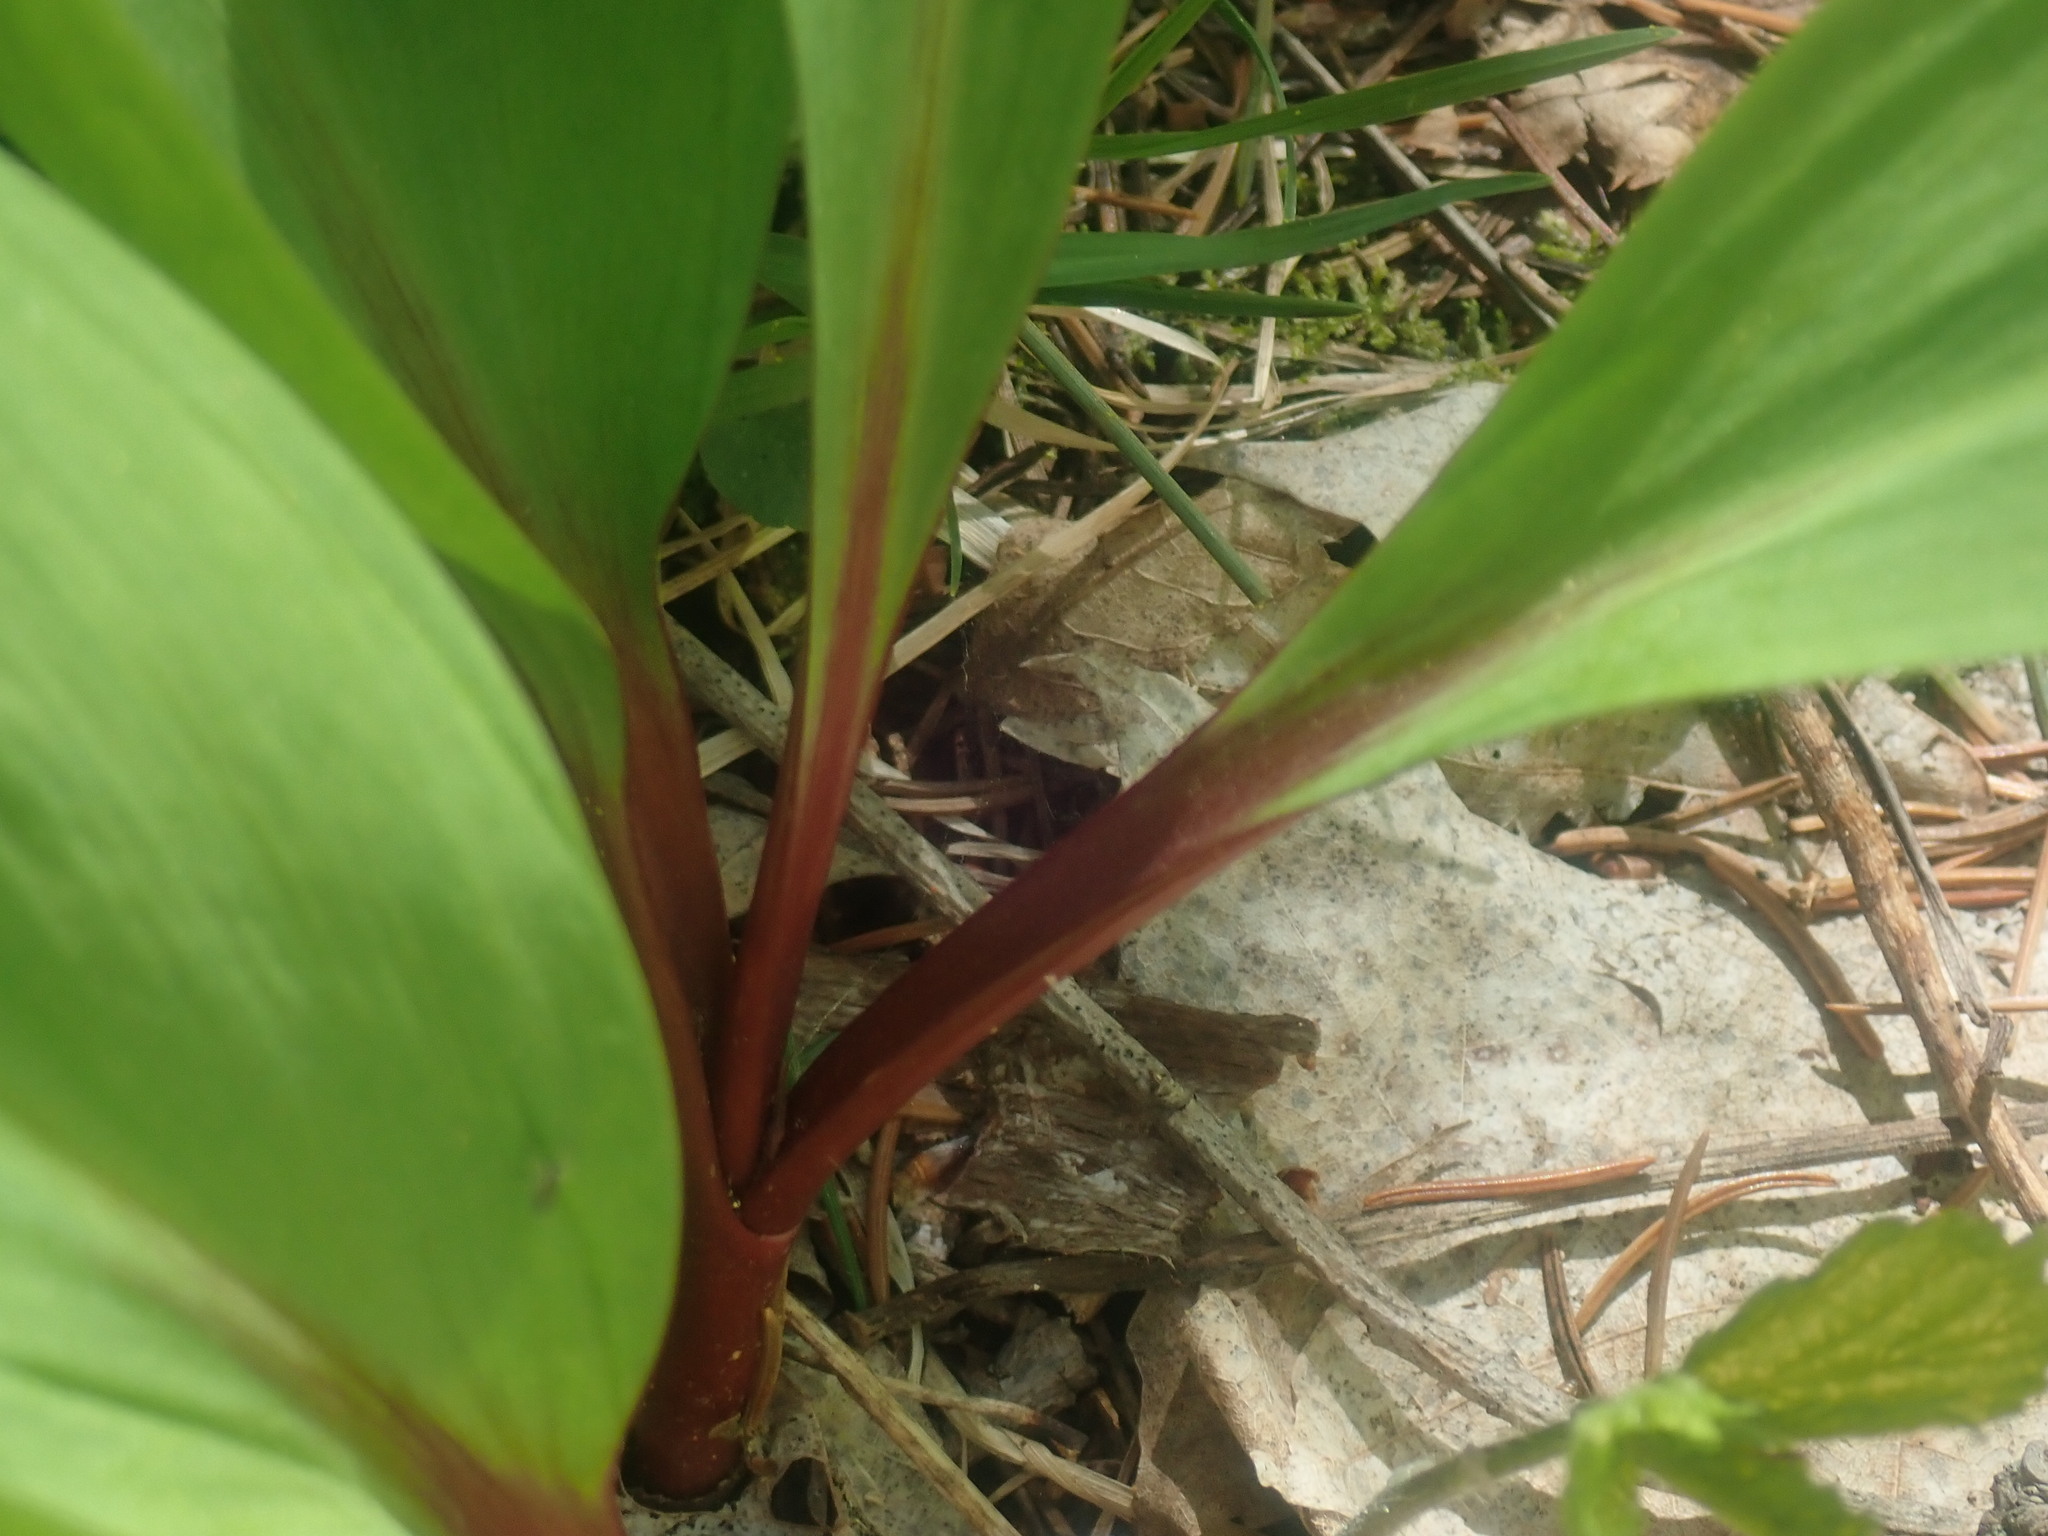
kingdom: Plantae
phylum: Tracheophyta
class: Liliopsida
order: Asparagales
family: Amaryllidaceae
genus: Allium
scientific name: Allium tricoccum
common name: Ramp
